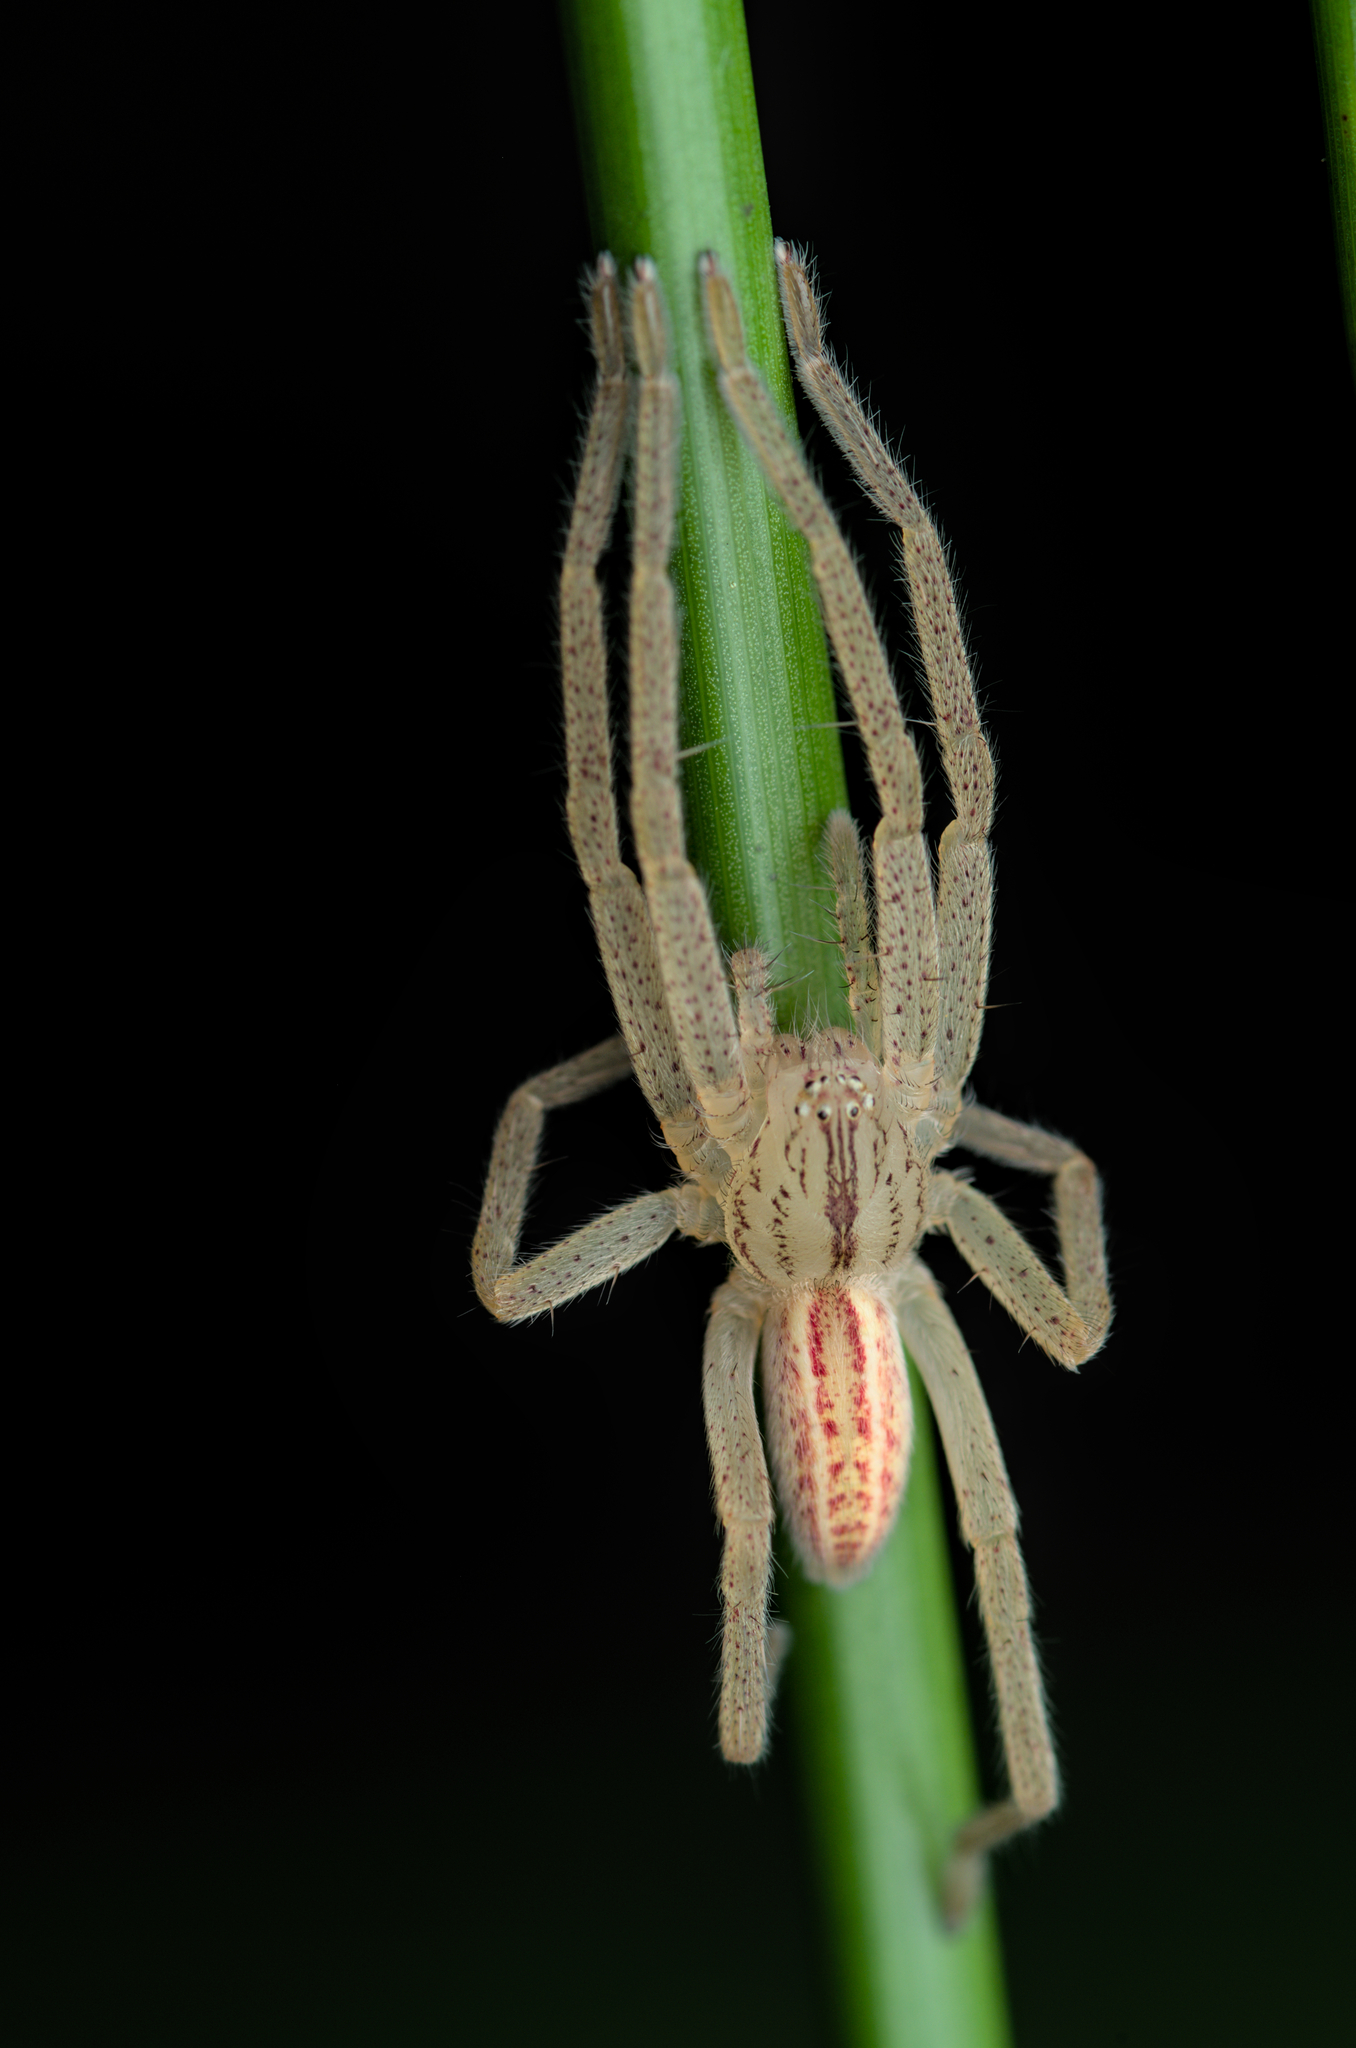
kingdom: Animalia
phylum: Arthropoda
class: Arachnida
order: Araneae
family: Sparassidae
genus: Micrommata
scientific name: Micrommata virescens
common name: Green spider
